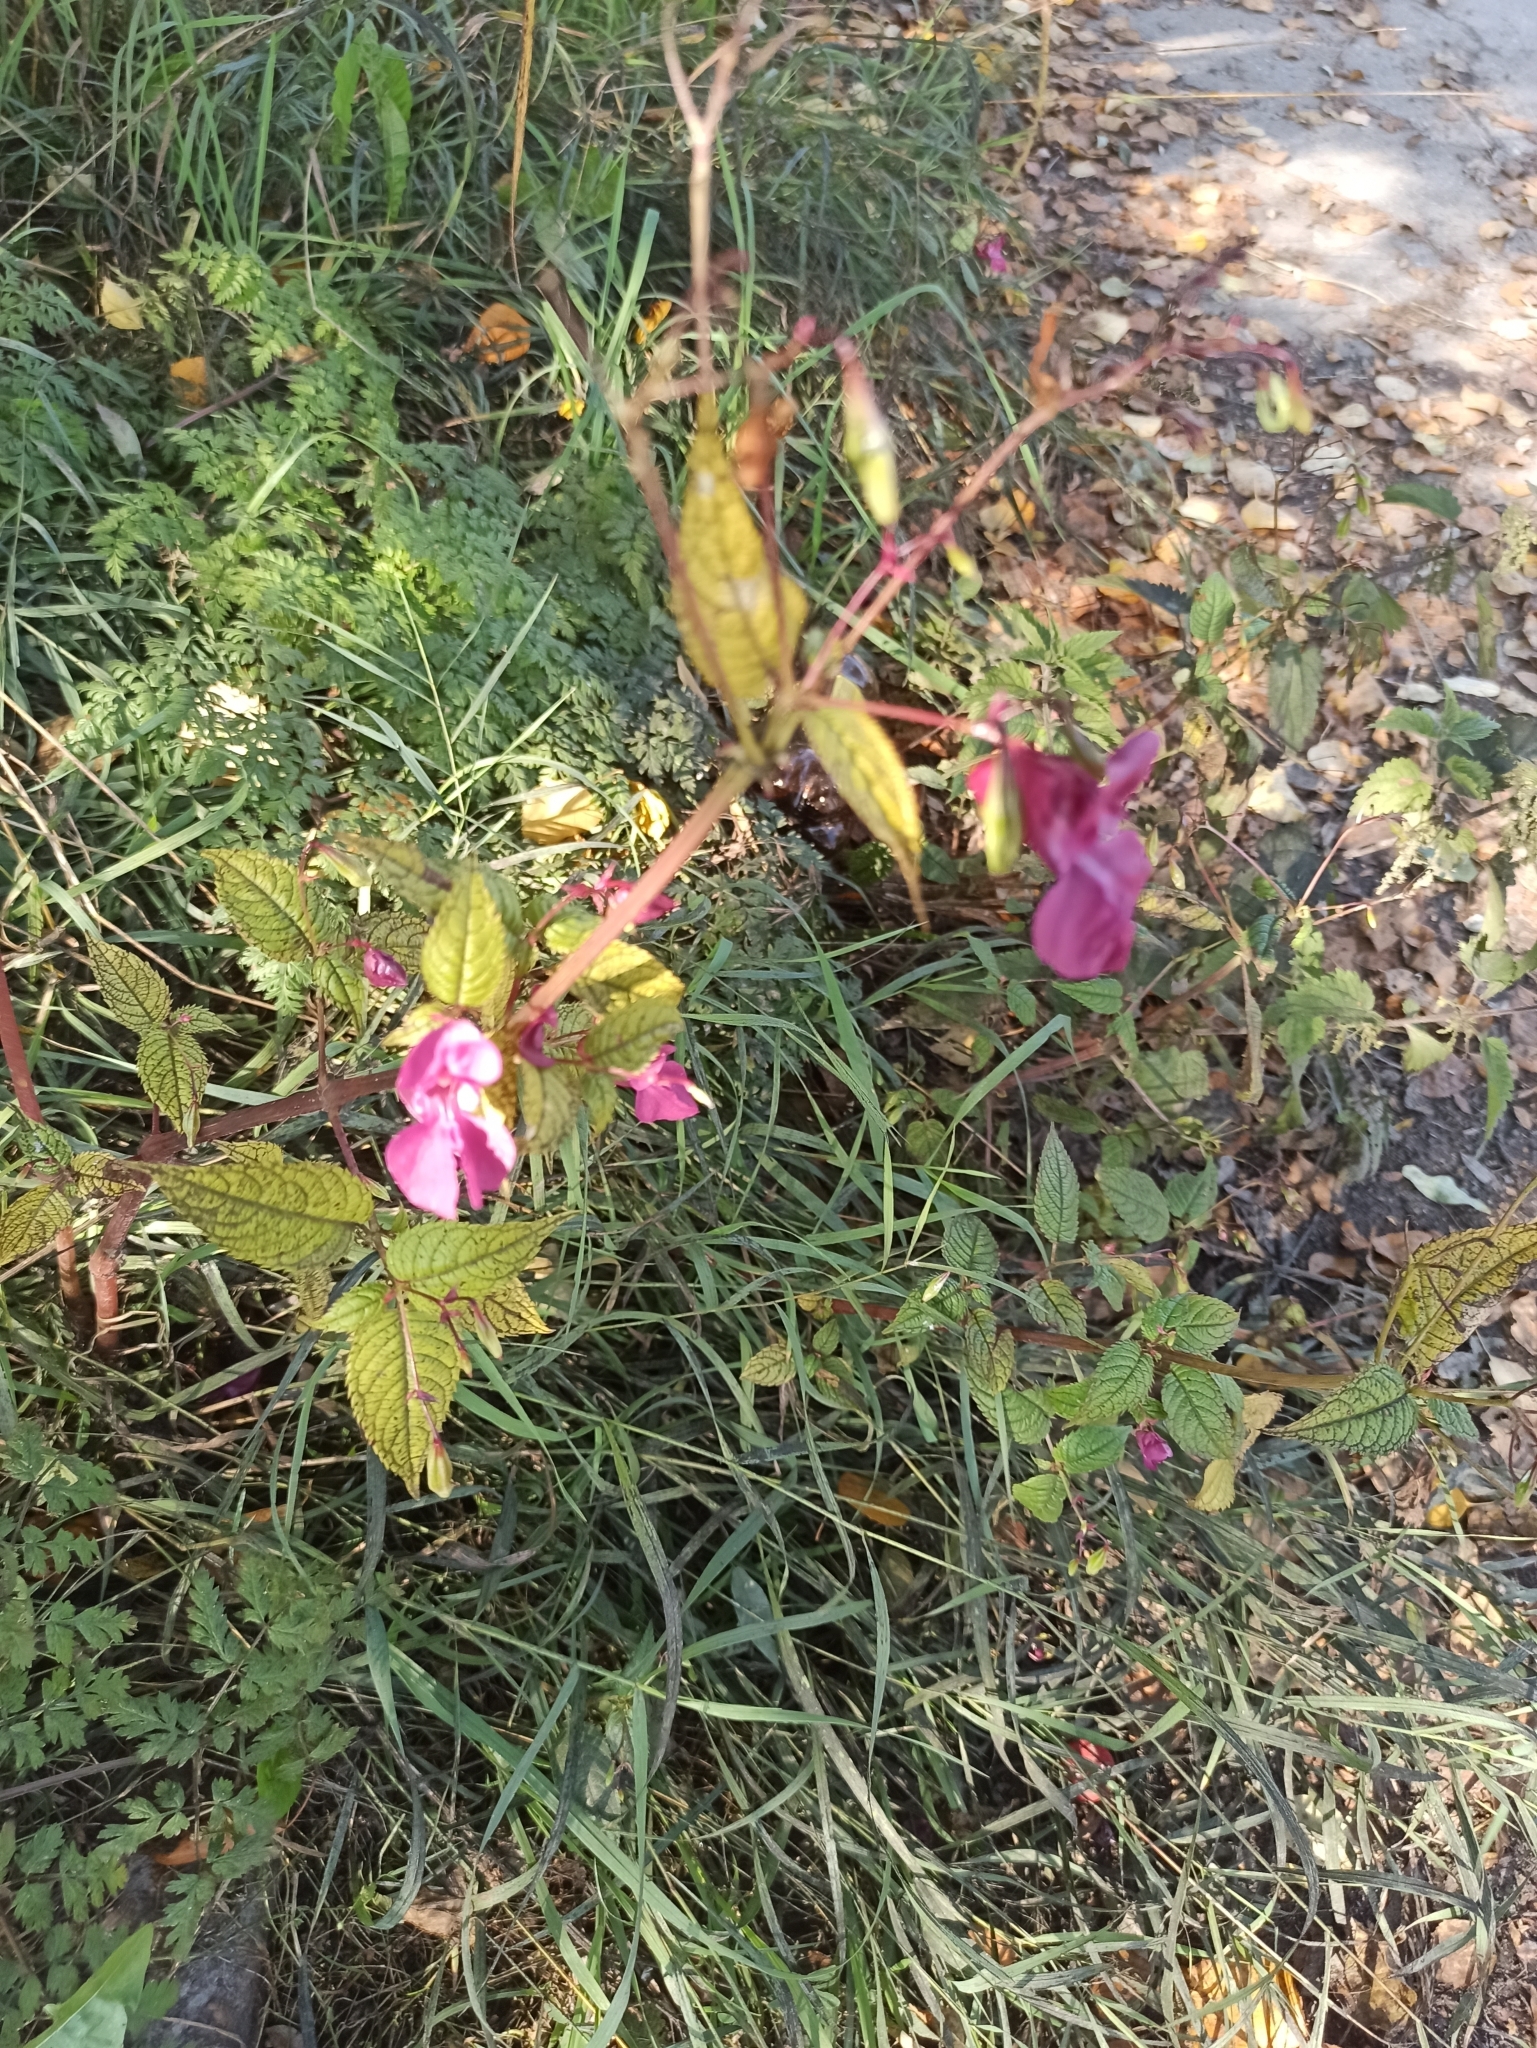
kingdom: Plantae
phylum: Tracheophyta
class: Magnoliopsida
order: Ericales
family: Balsaminaceae
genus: Impatiens
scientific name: Impatiens glandulifera
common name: Himalayan balsam
